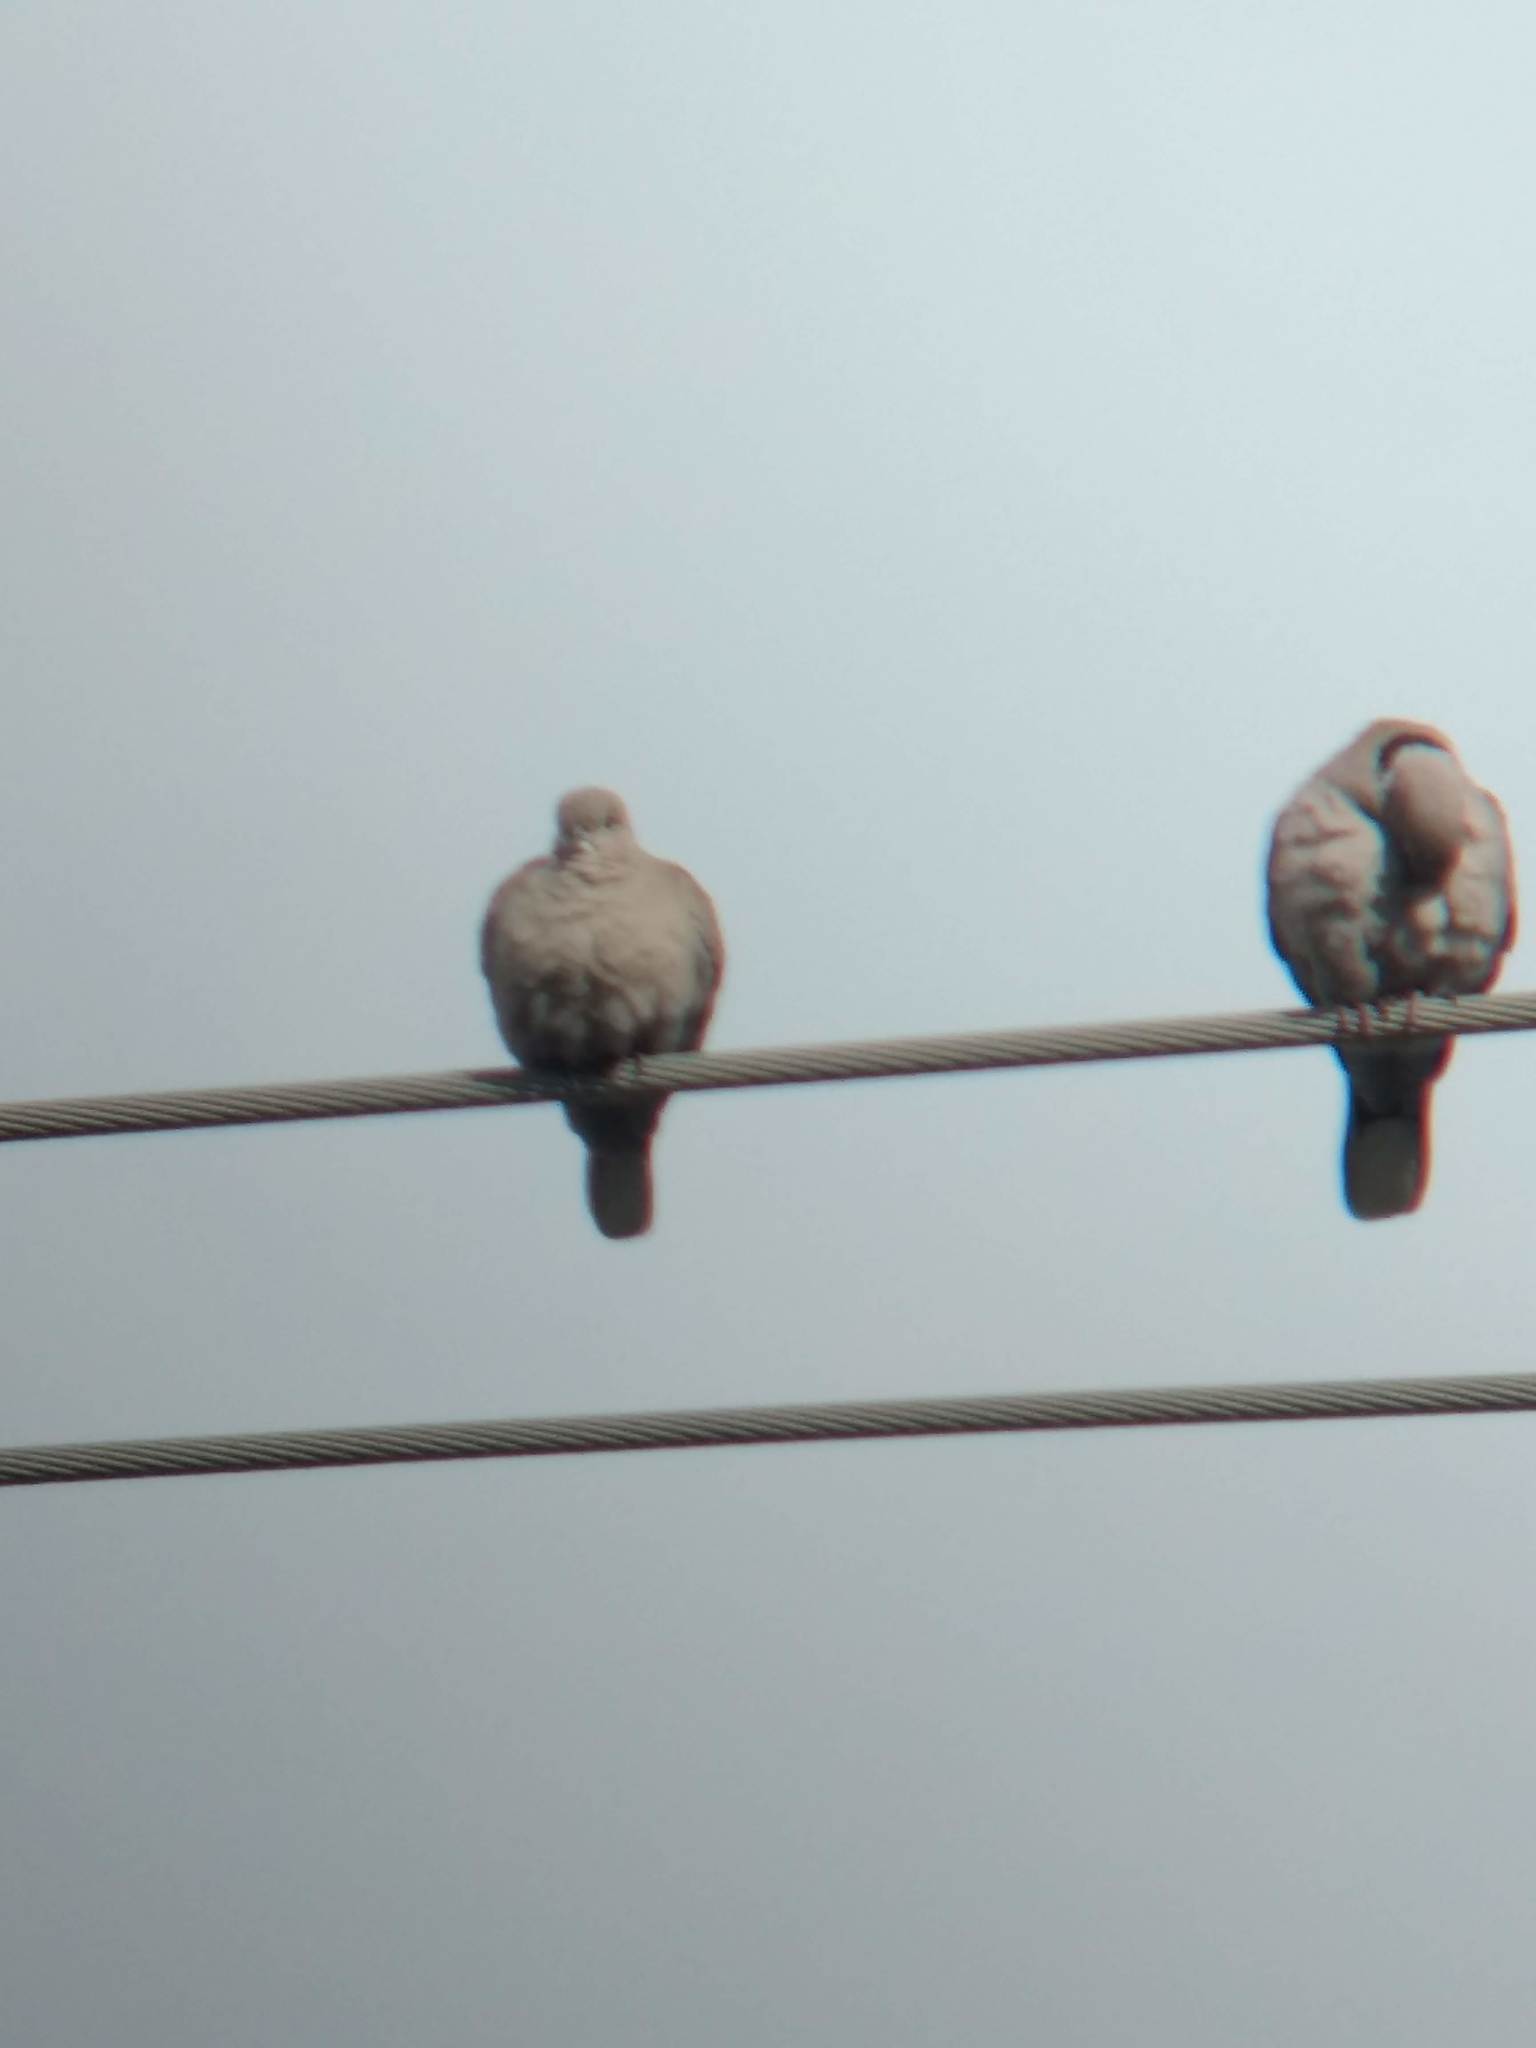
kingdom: Animalia
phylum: Chordata
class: Aves
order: Columbiformes
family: Columbidae
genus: Streptopelia
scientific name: Streptopelia decaocto
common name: Eurasian collared dove
